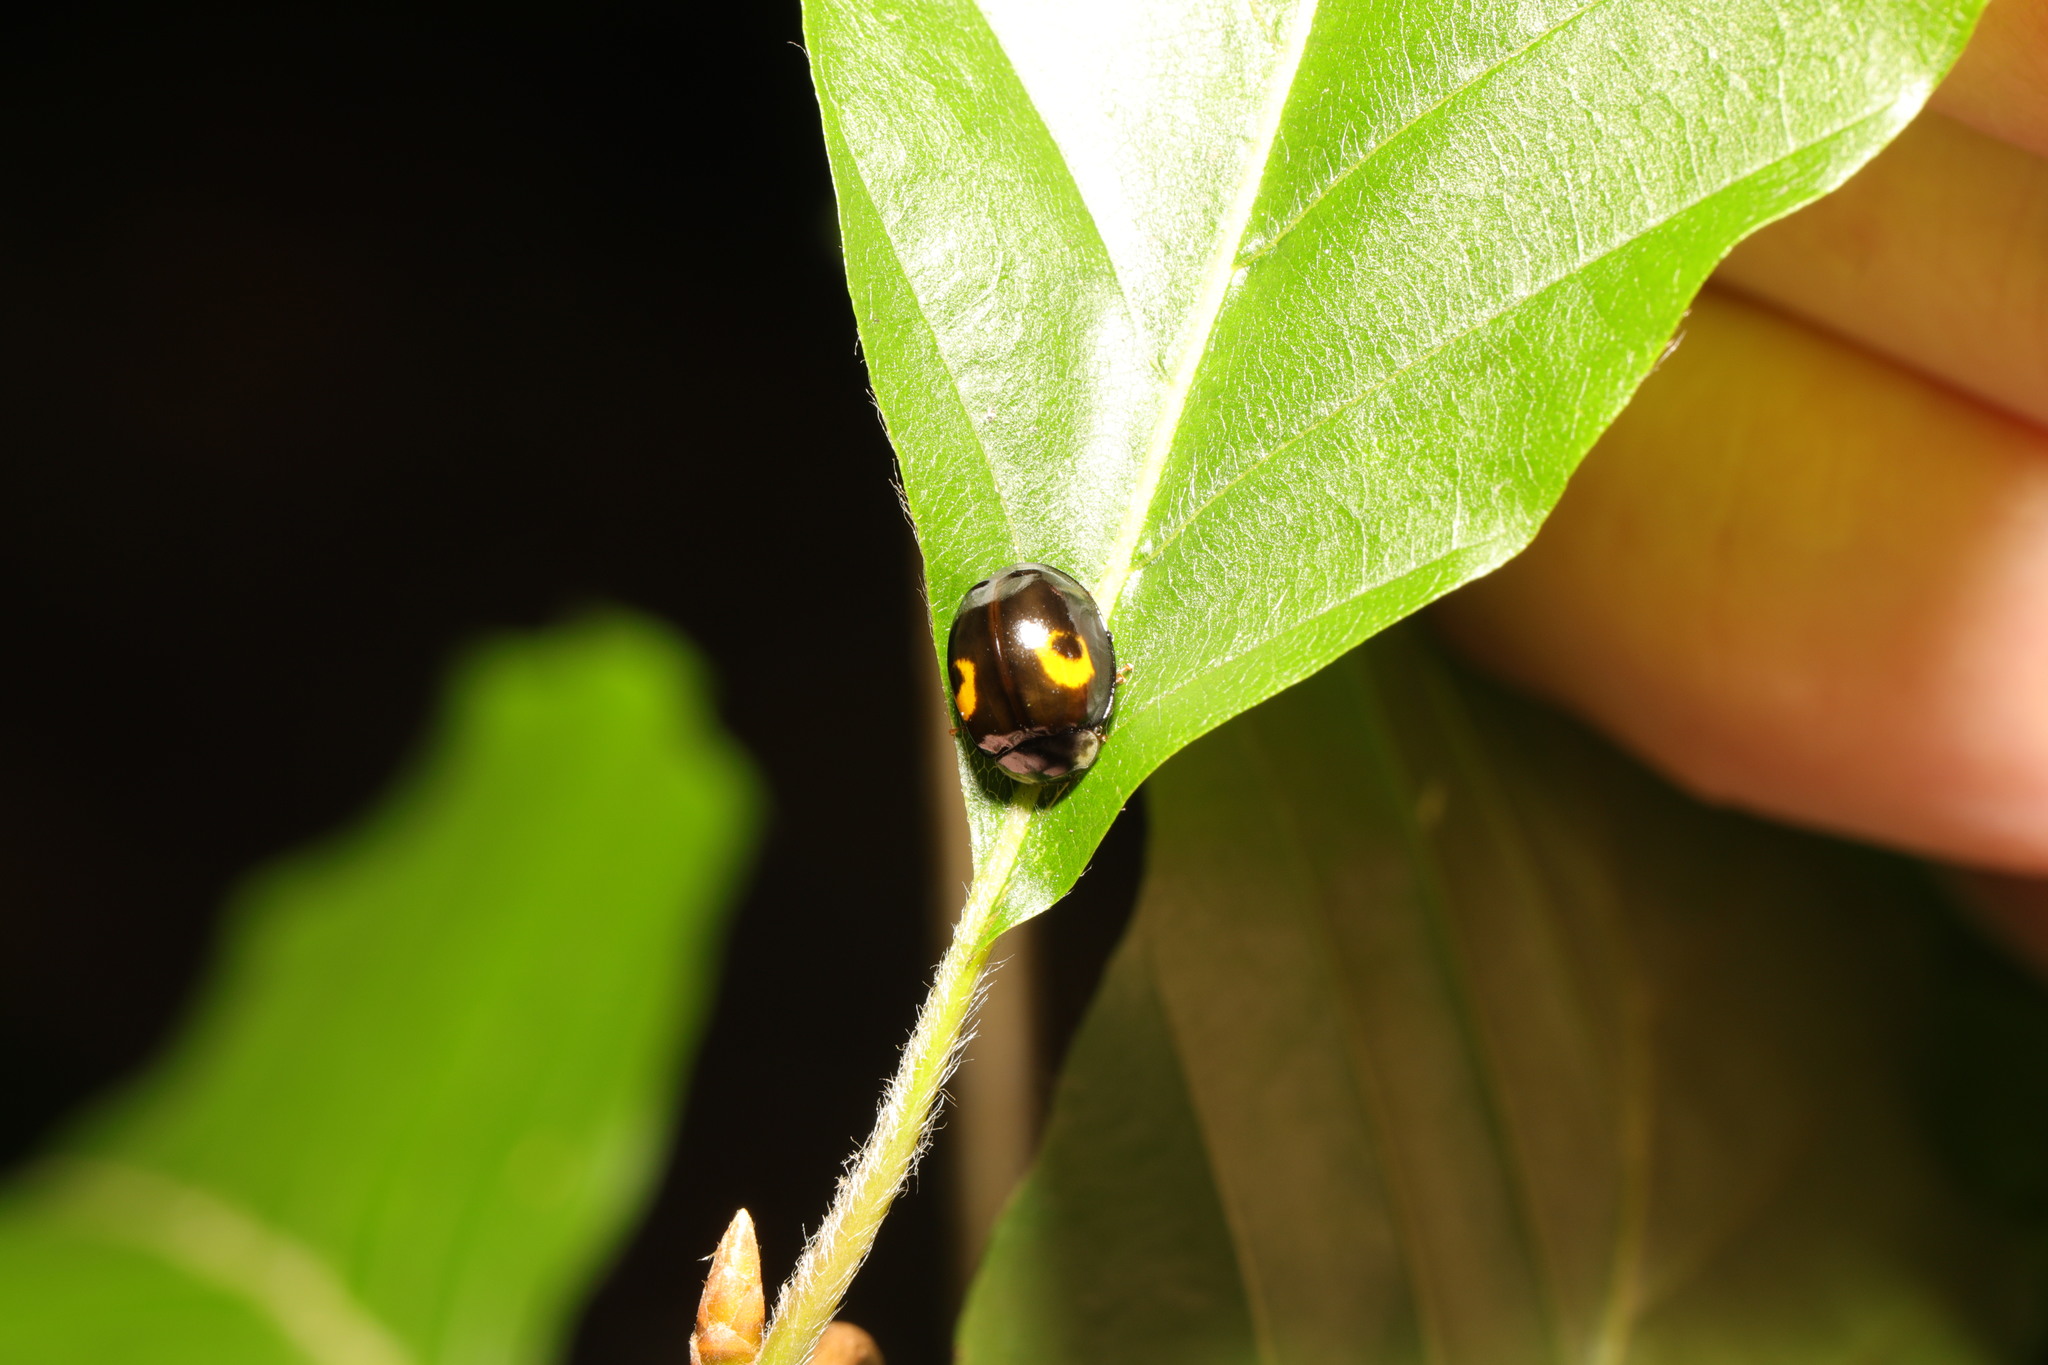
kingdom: Animalia
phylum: Arthropoda
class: Insecta
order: Coleoptera
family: Coccinellidae
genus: Harmonia
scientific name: Harmonia axyridis
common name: Harlequin ladybird
